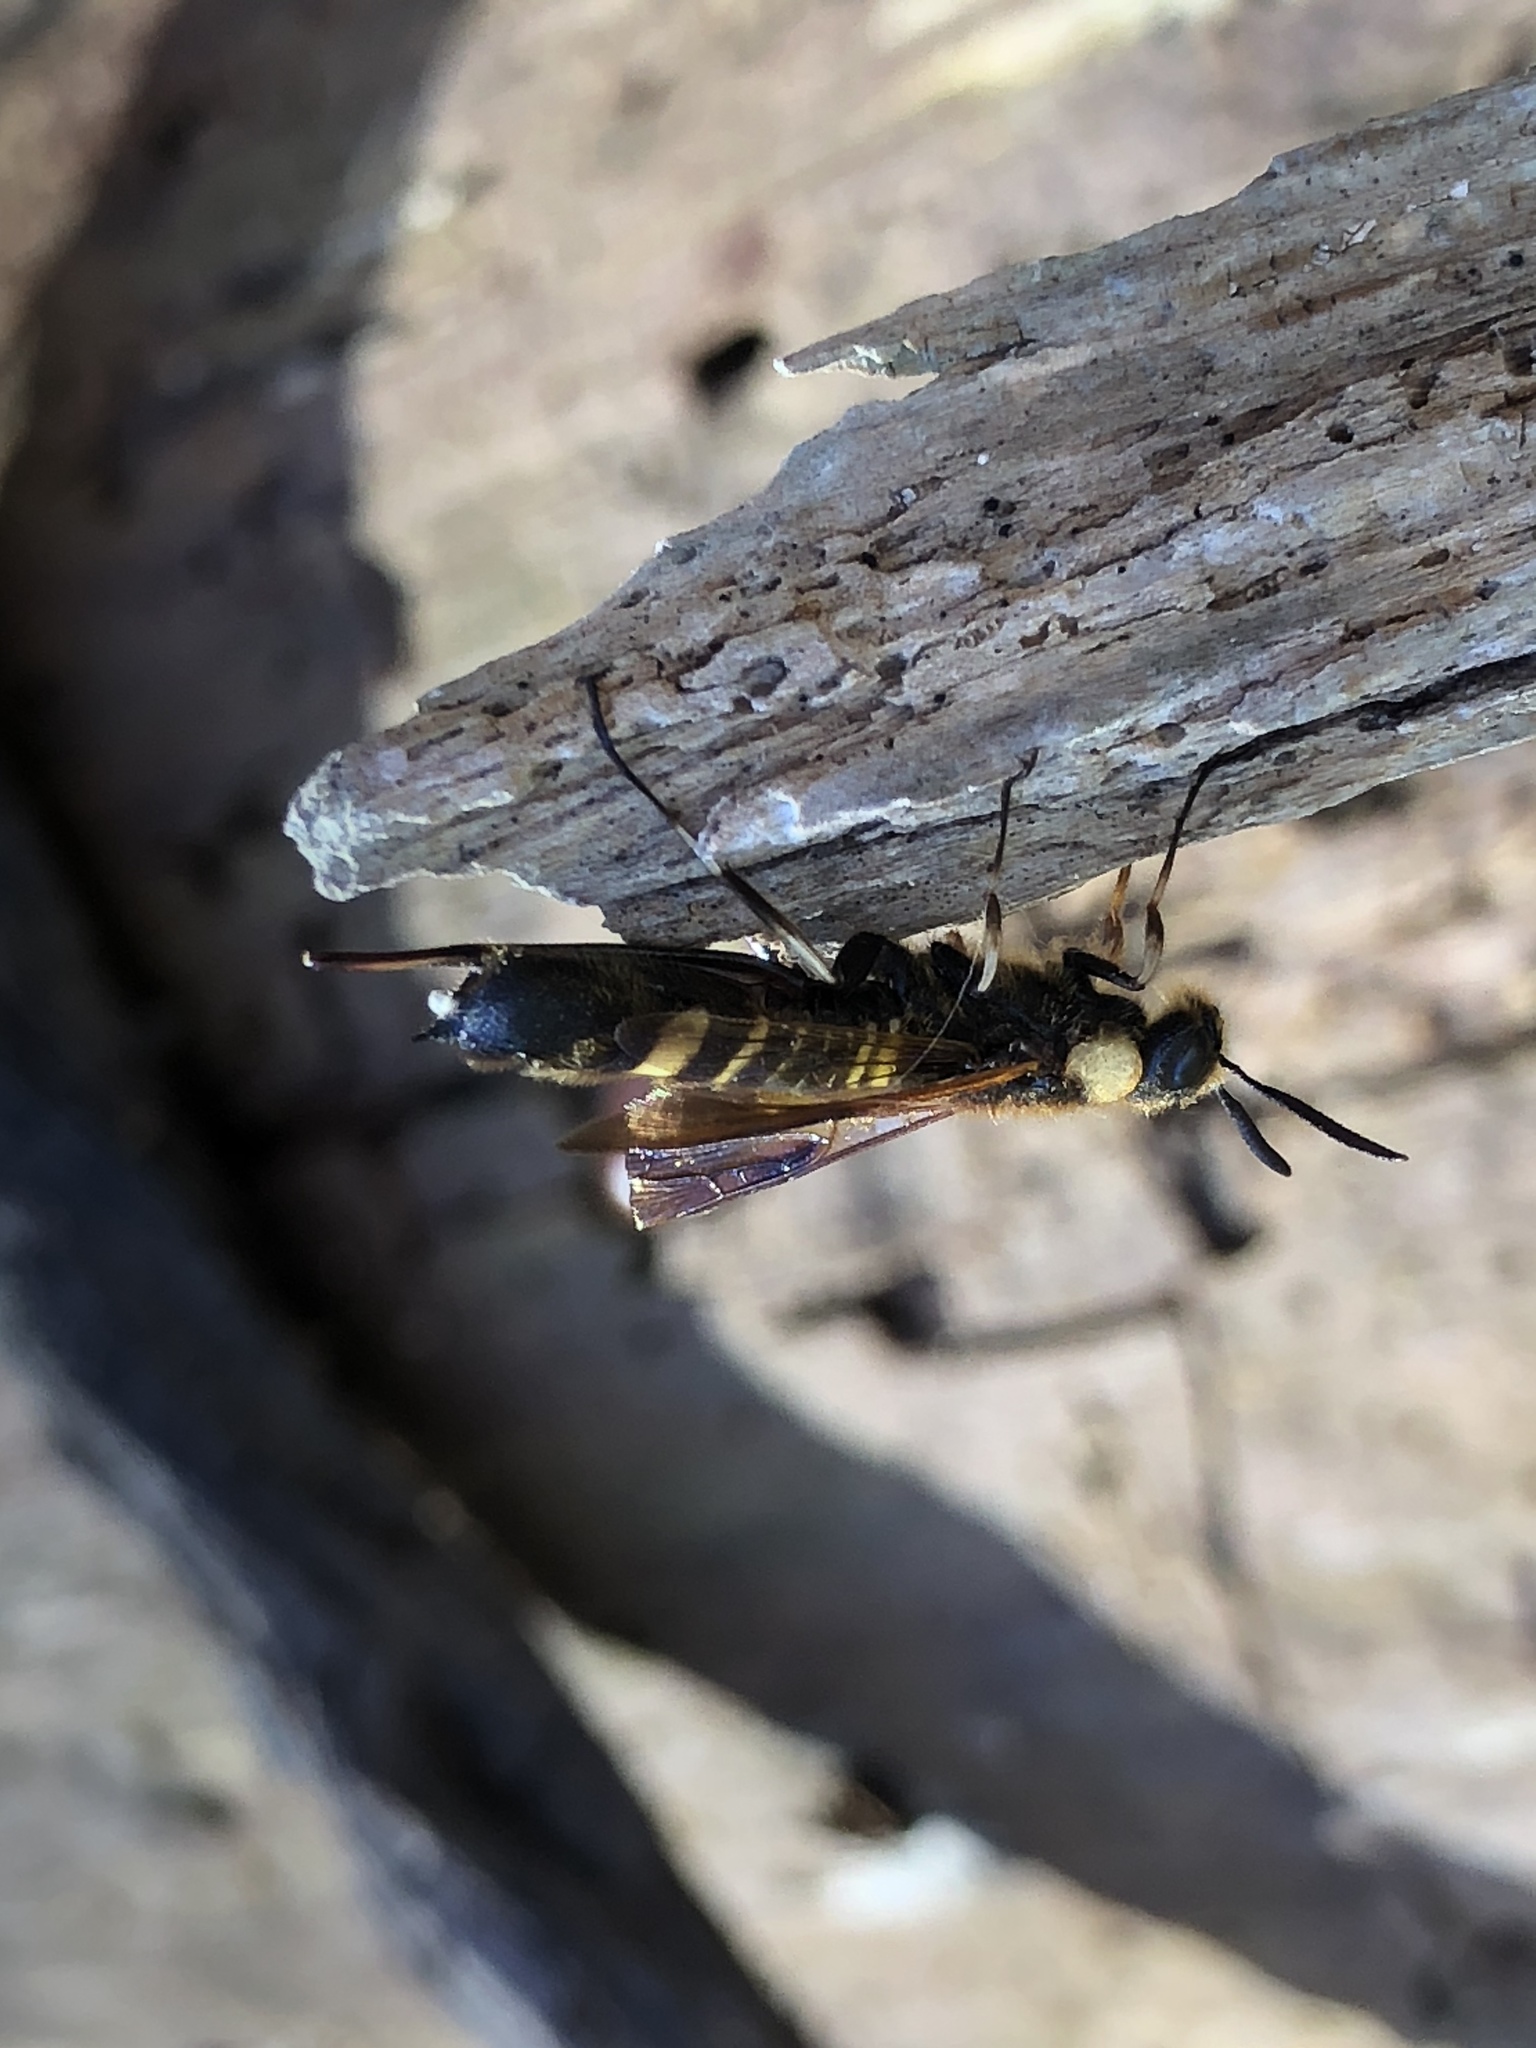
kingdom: Animalia
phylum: Arthropoda
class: Insecta
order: Hymenoptera
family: Siricidae
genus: Eriotremex
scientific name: Eriotremex formosanus
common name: Asian horntail
